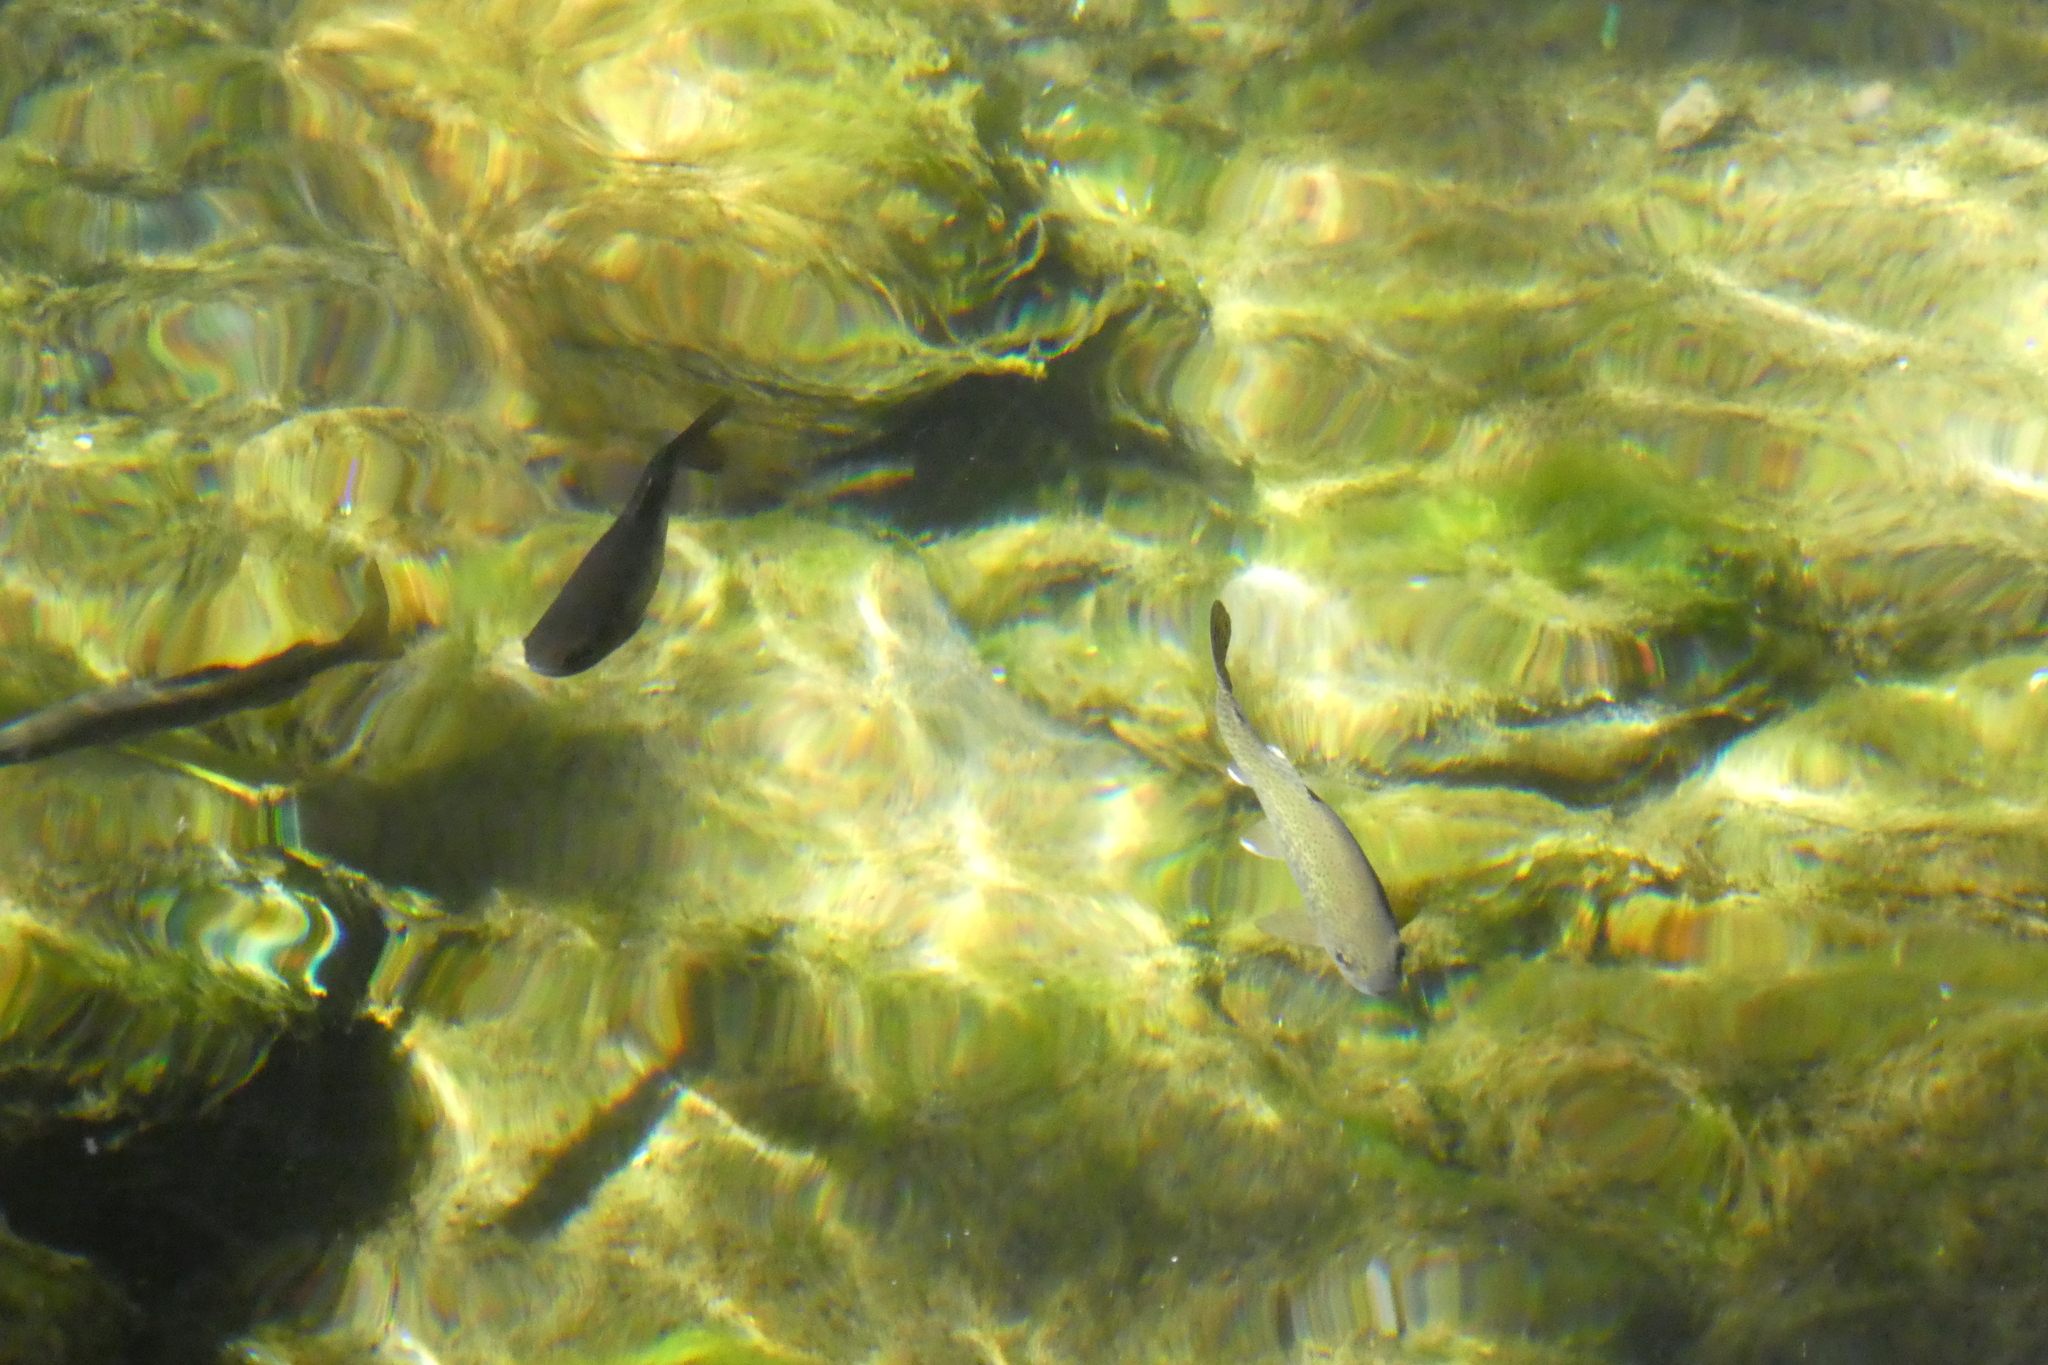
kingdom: Animalia
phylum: Chordata
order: Salmoniformes
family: Salmonidae
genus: Oncorhynchus
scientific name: Oncorhynchus mykiss
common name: Rainbow trout
